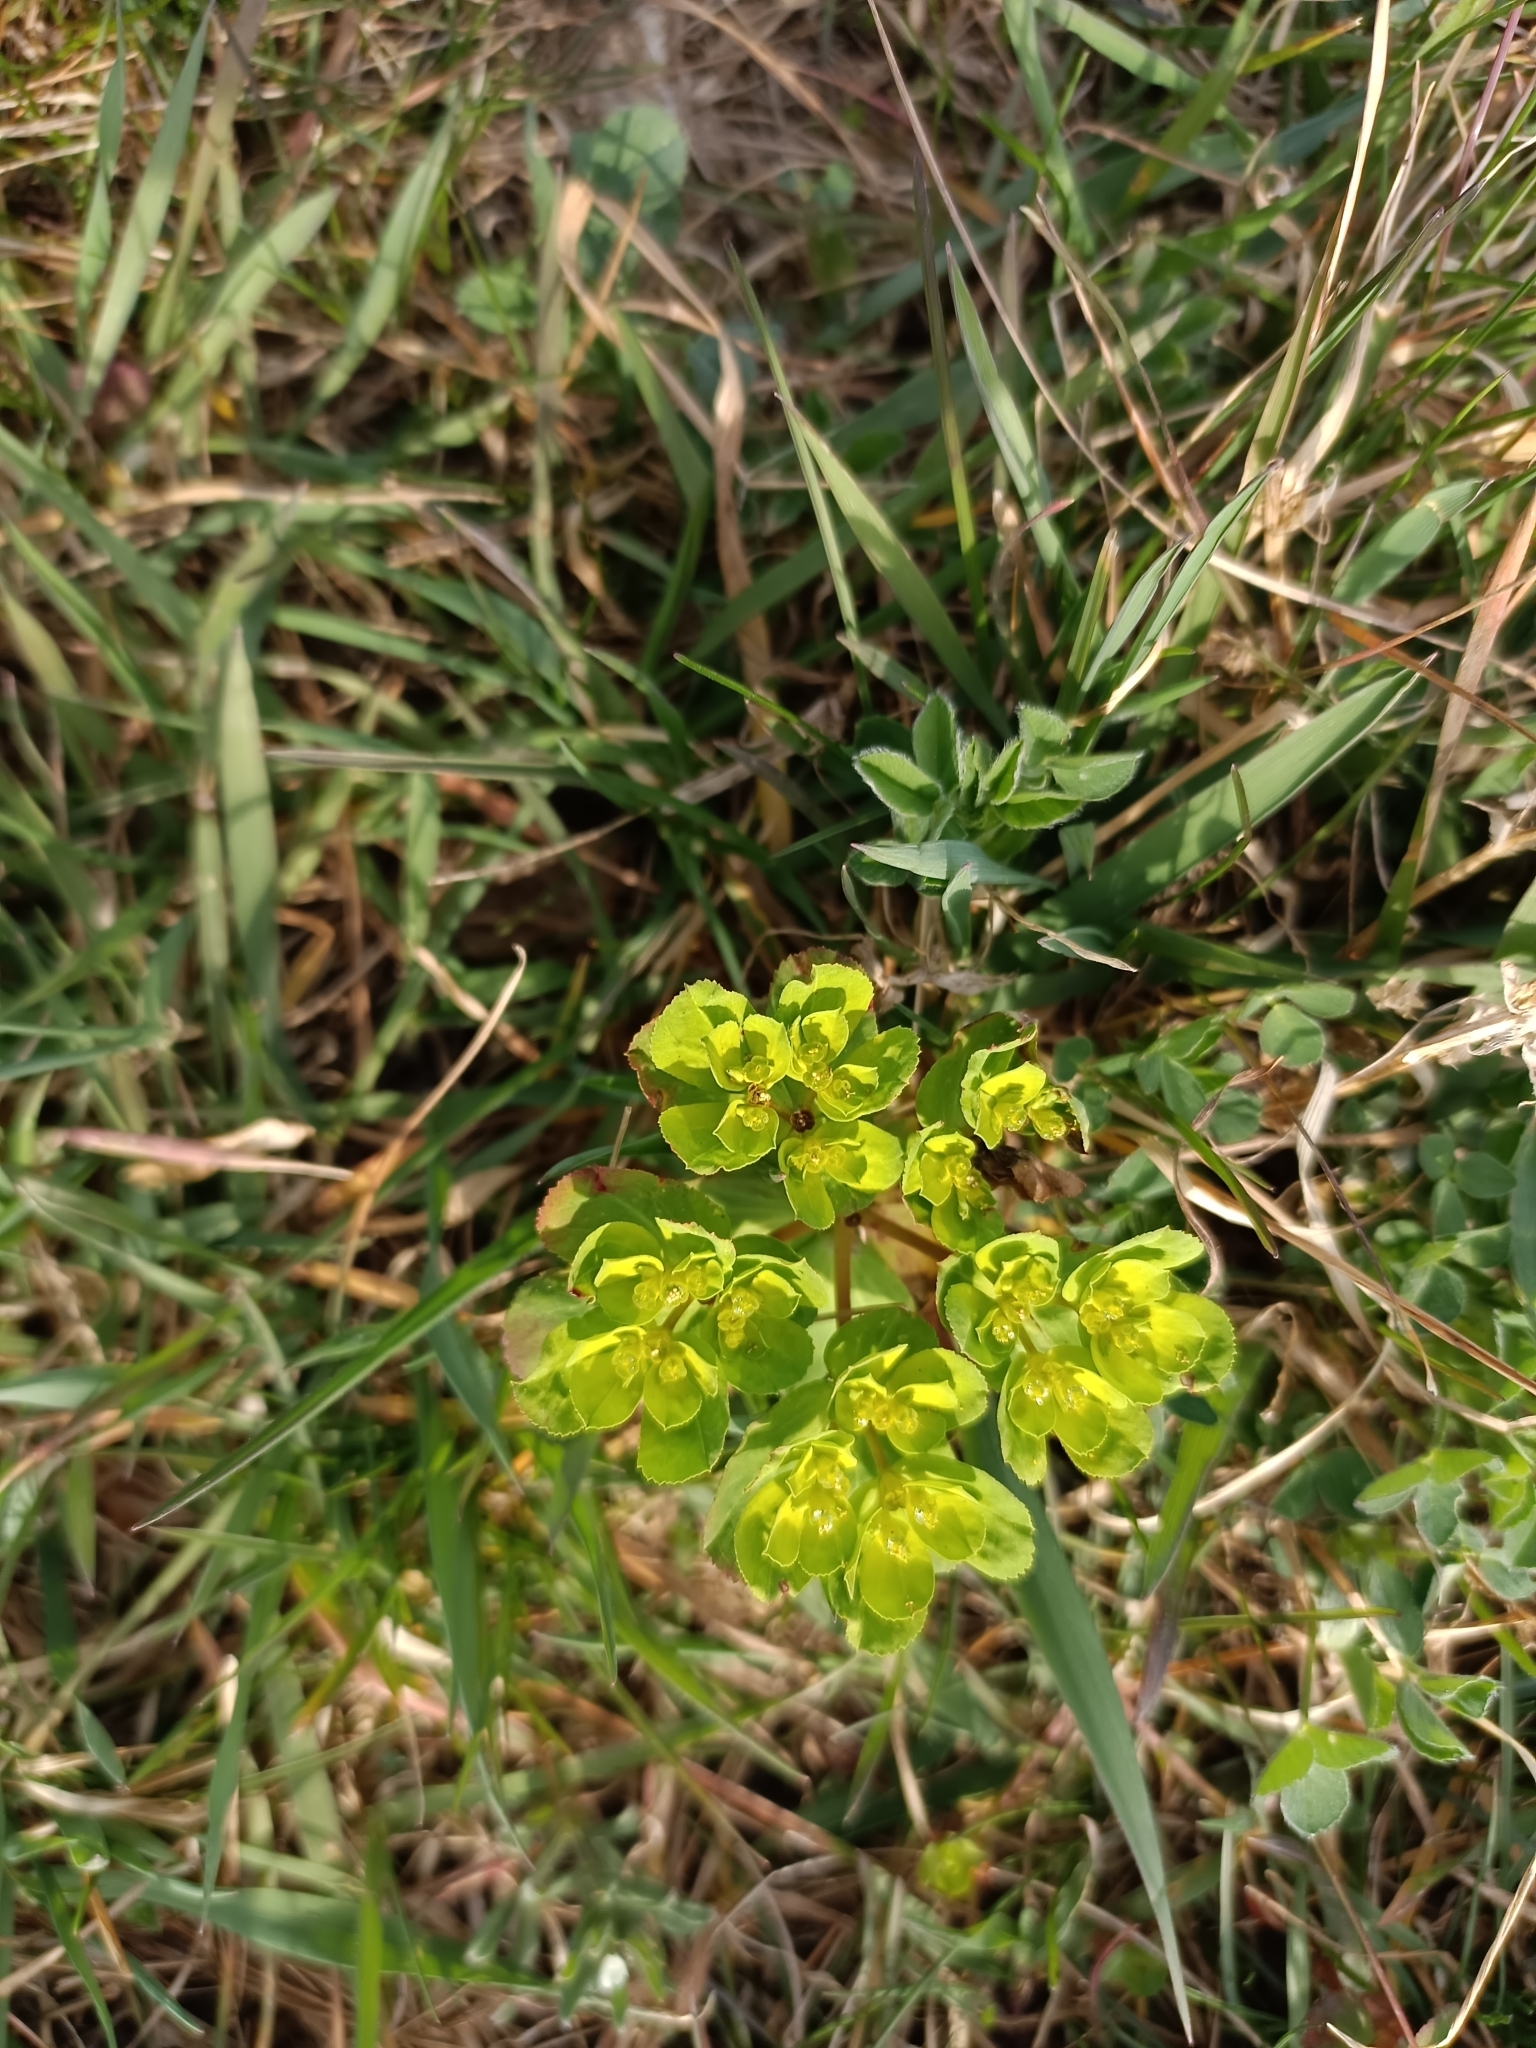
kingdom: Plantae
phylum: Tracheophyta
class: Magnoliopsida
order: Malpighiales
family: Euphorbiaceae
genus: Euphorbia
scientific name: Euphorbia helioscopia
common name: Sun spurge
